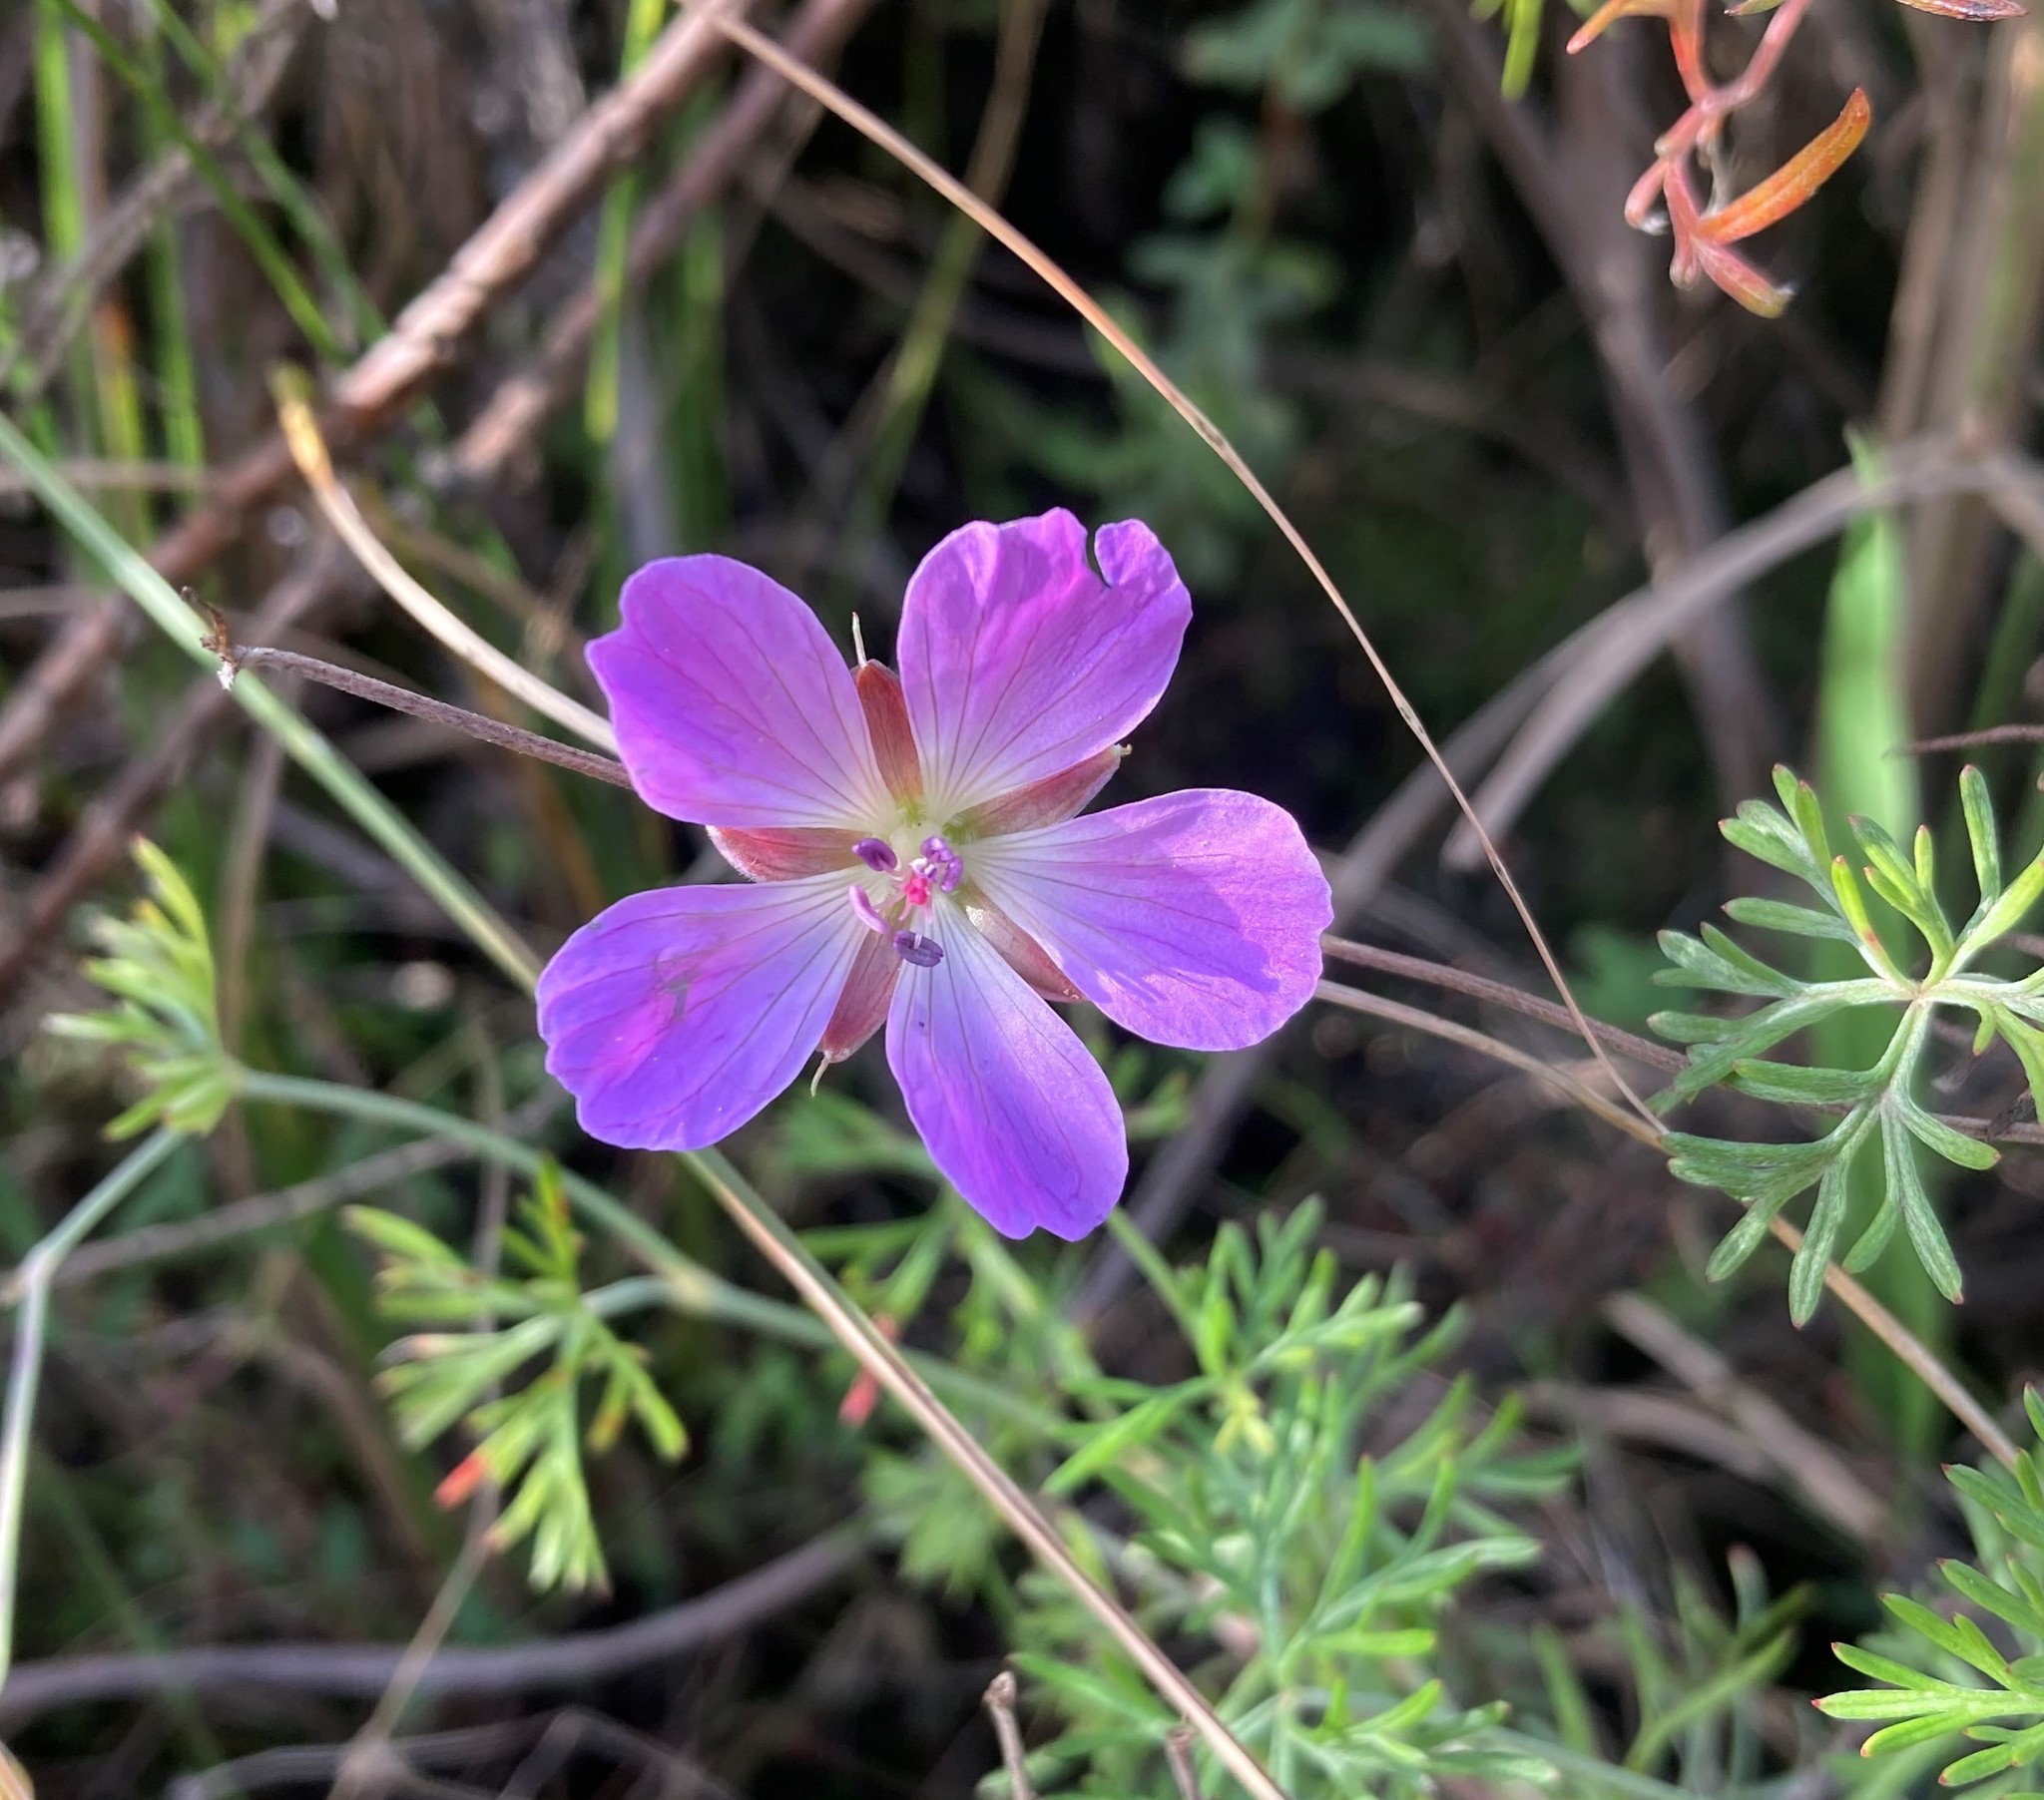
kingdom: Plantae
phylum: Tracheophyta
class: Magnoliopsida
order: Geraniales
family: Geraniaceae
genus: Geranium
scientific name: Geranium incanum
